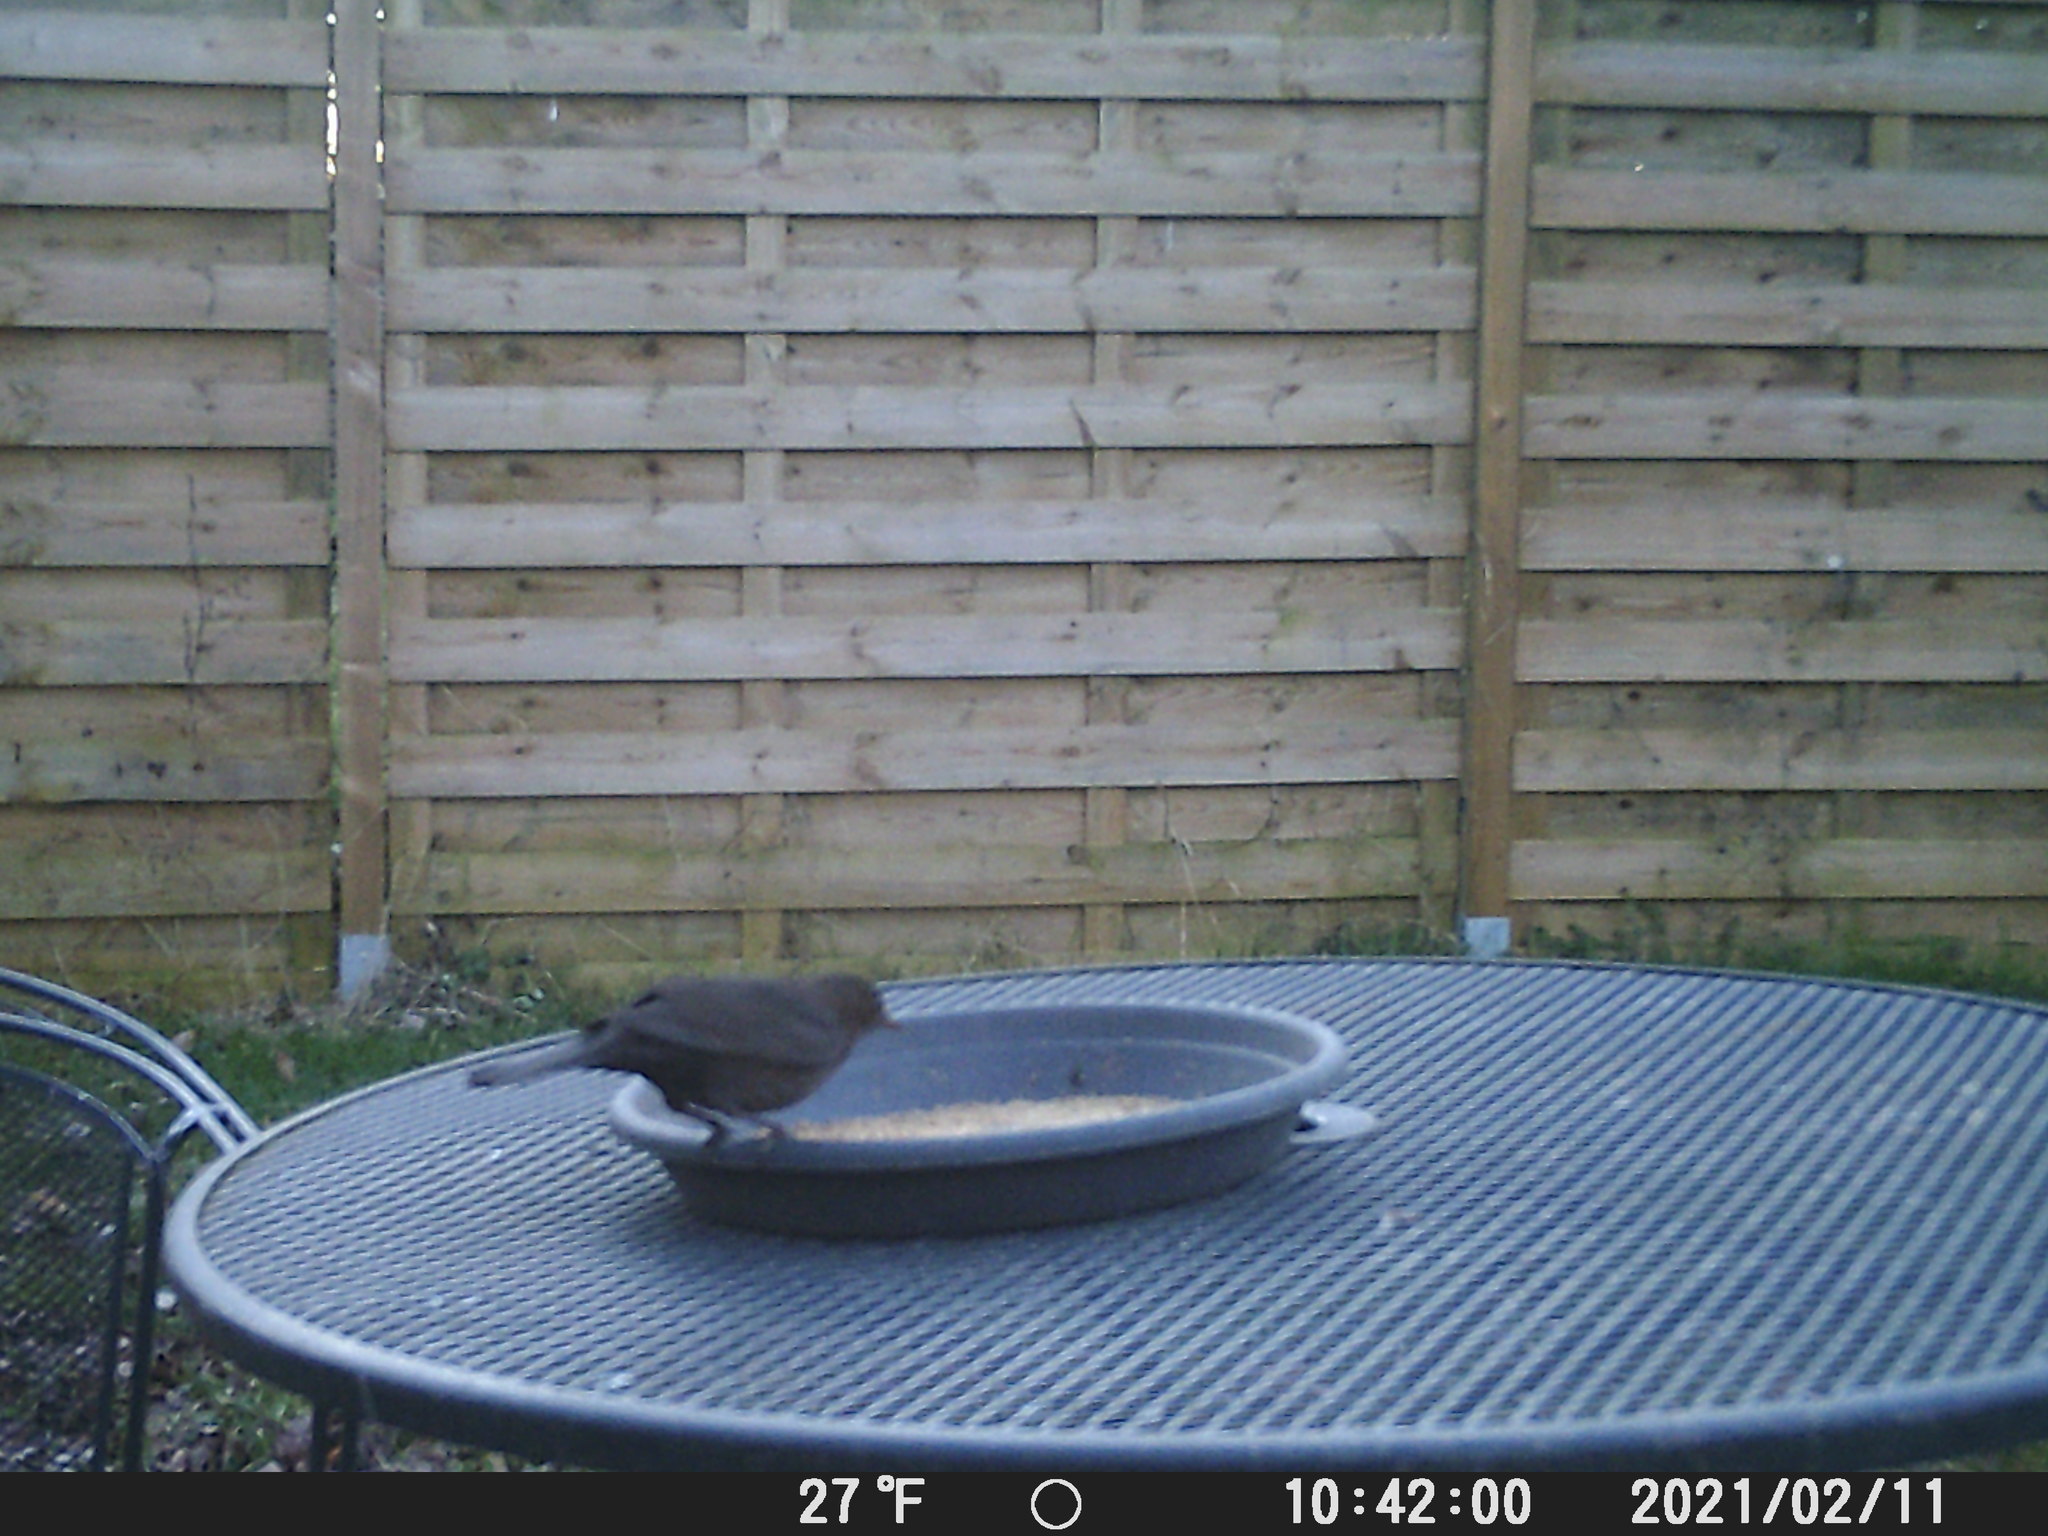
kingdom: Animalia
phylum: Chordata
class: Aves
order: Passeriformes
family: Turdidae
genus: Turdus
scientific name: Turdus merula
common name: Common blackbird
